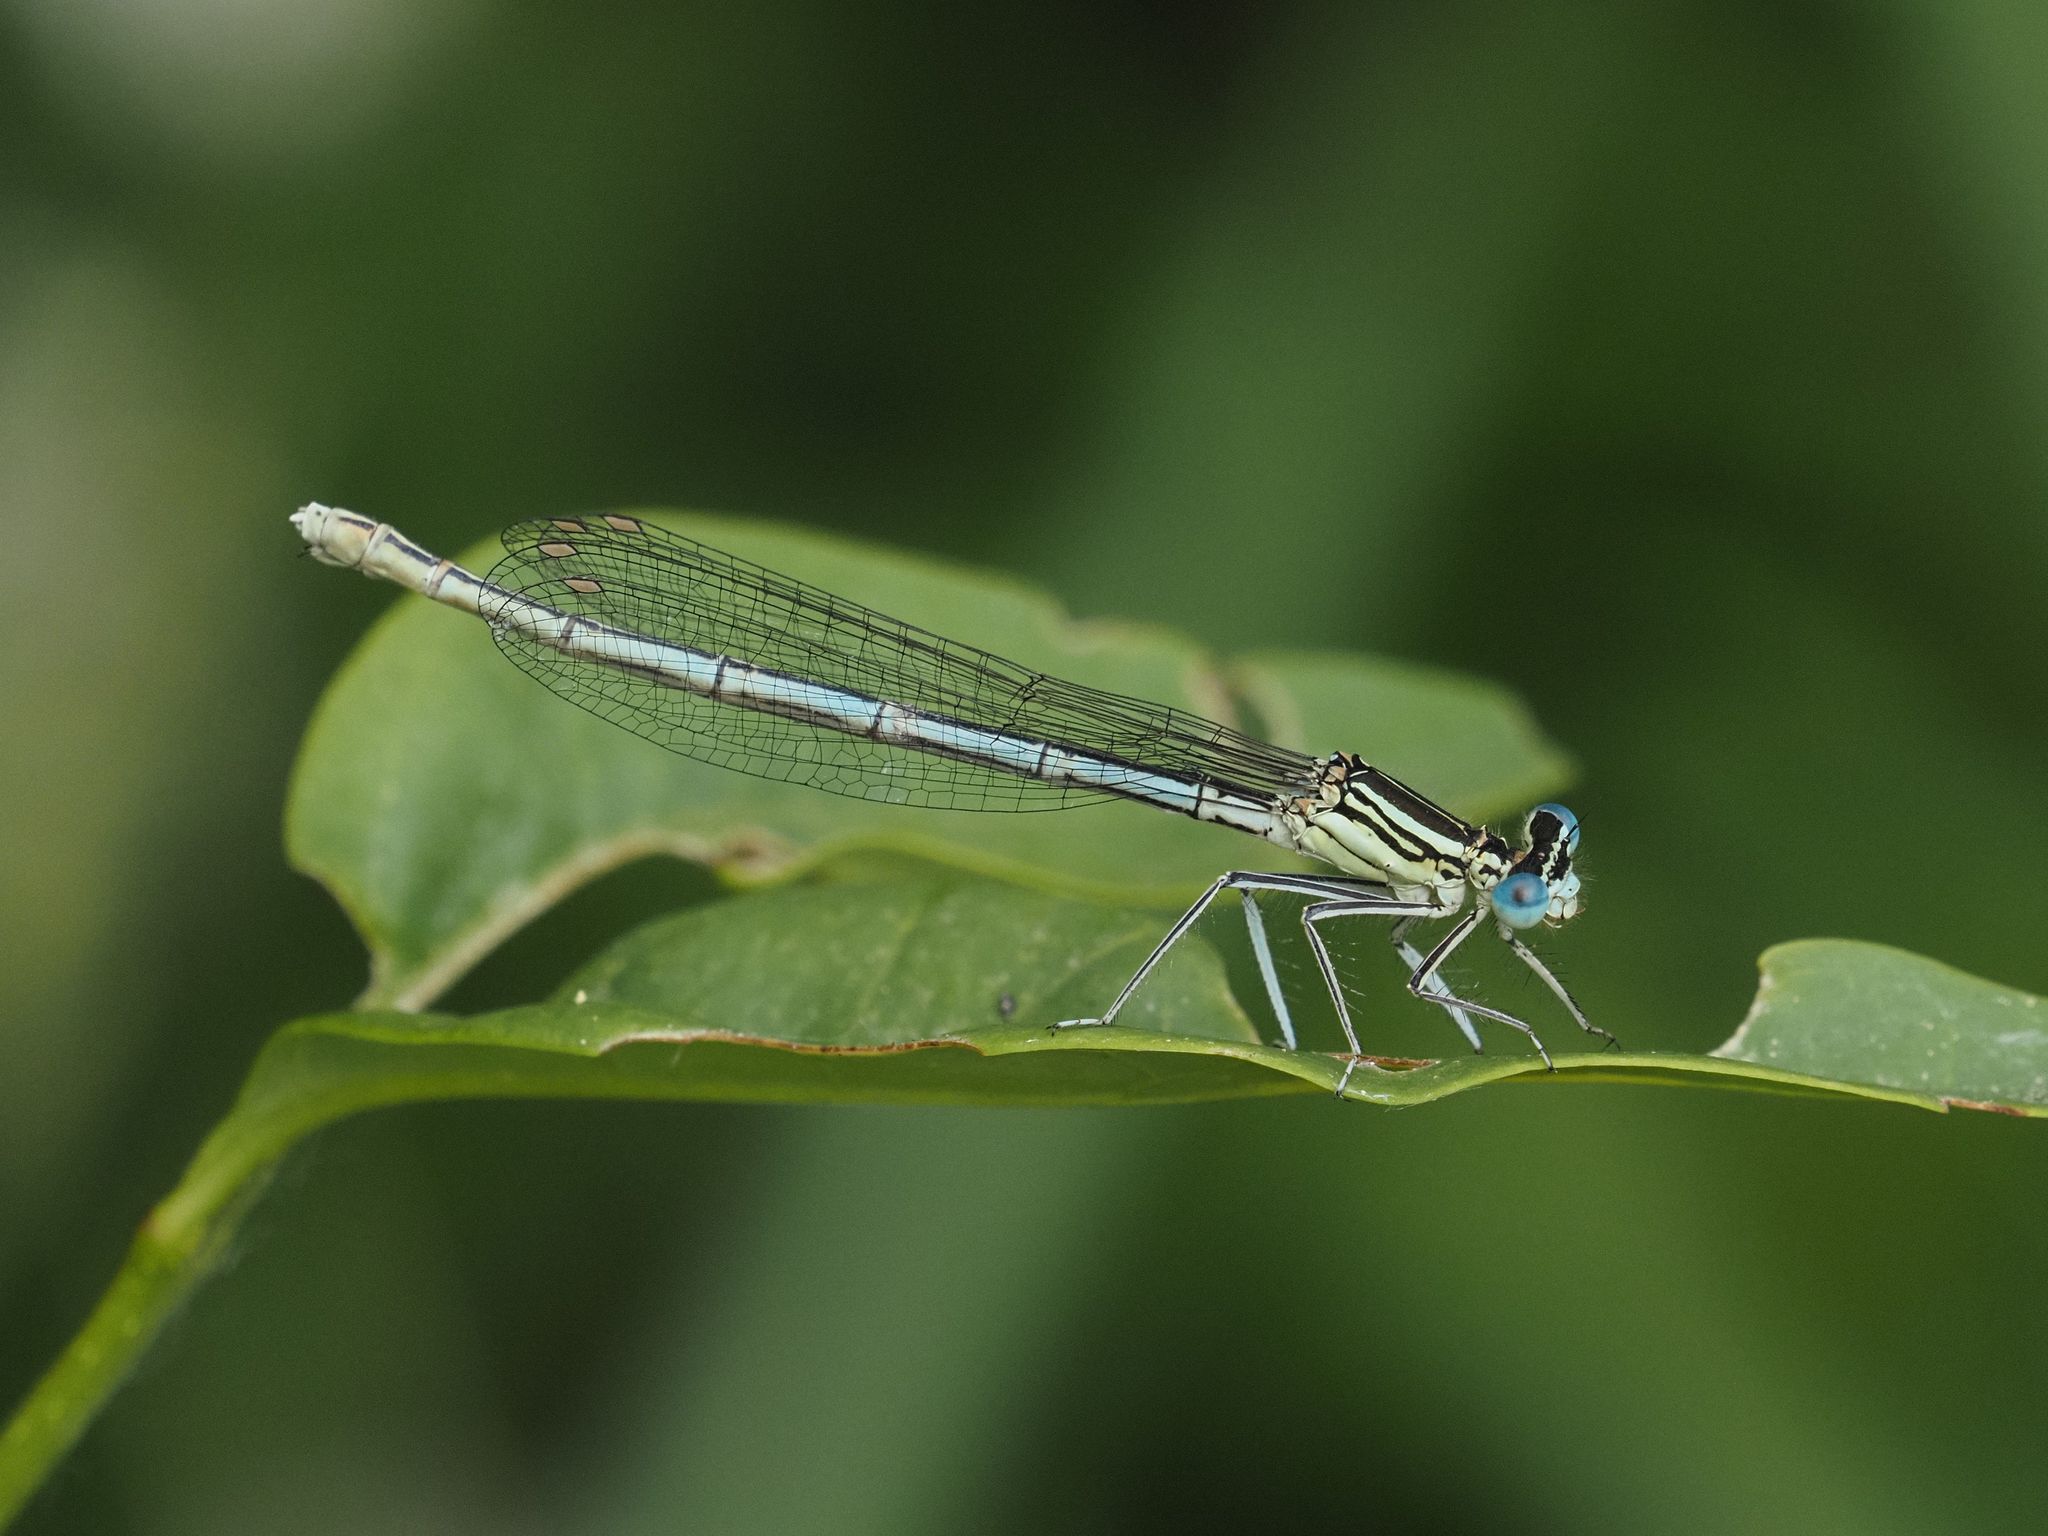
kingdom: Animalia
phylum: Arthropoda
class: Insecta
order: Odonata
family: Platycnemididae
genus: Platycnemis
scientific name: Platycnemis pennipes
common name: White-legged damselfly
